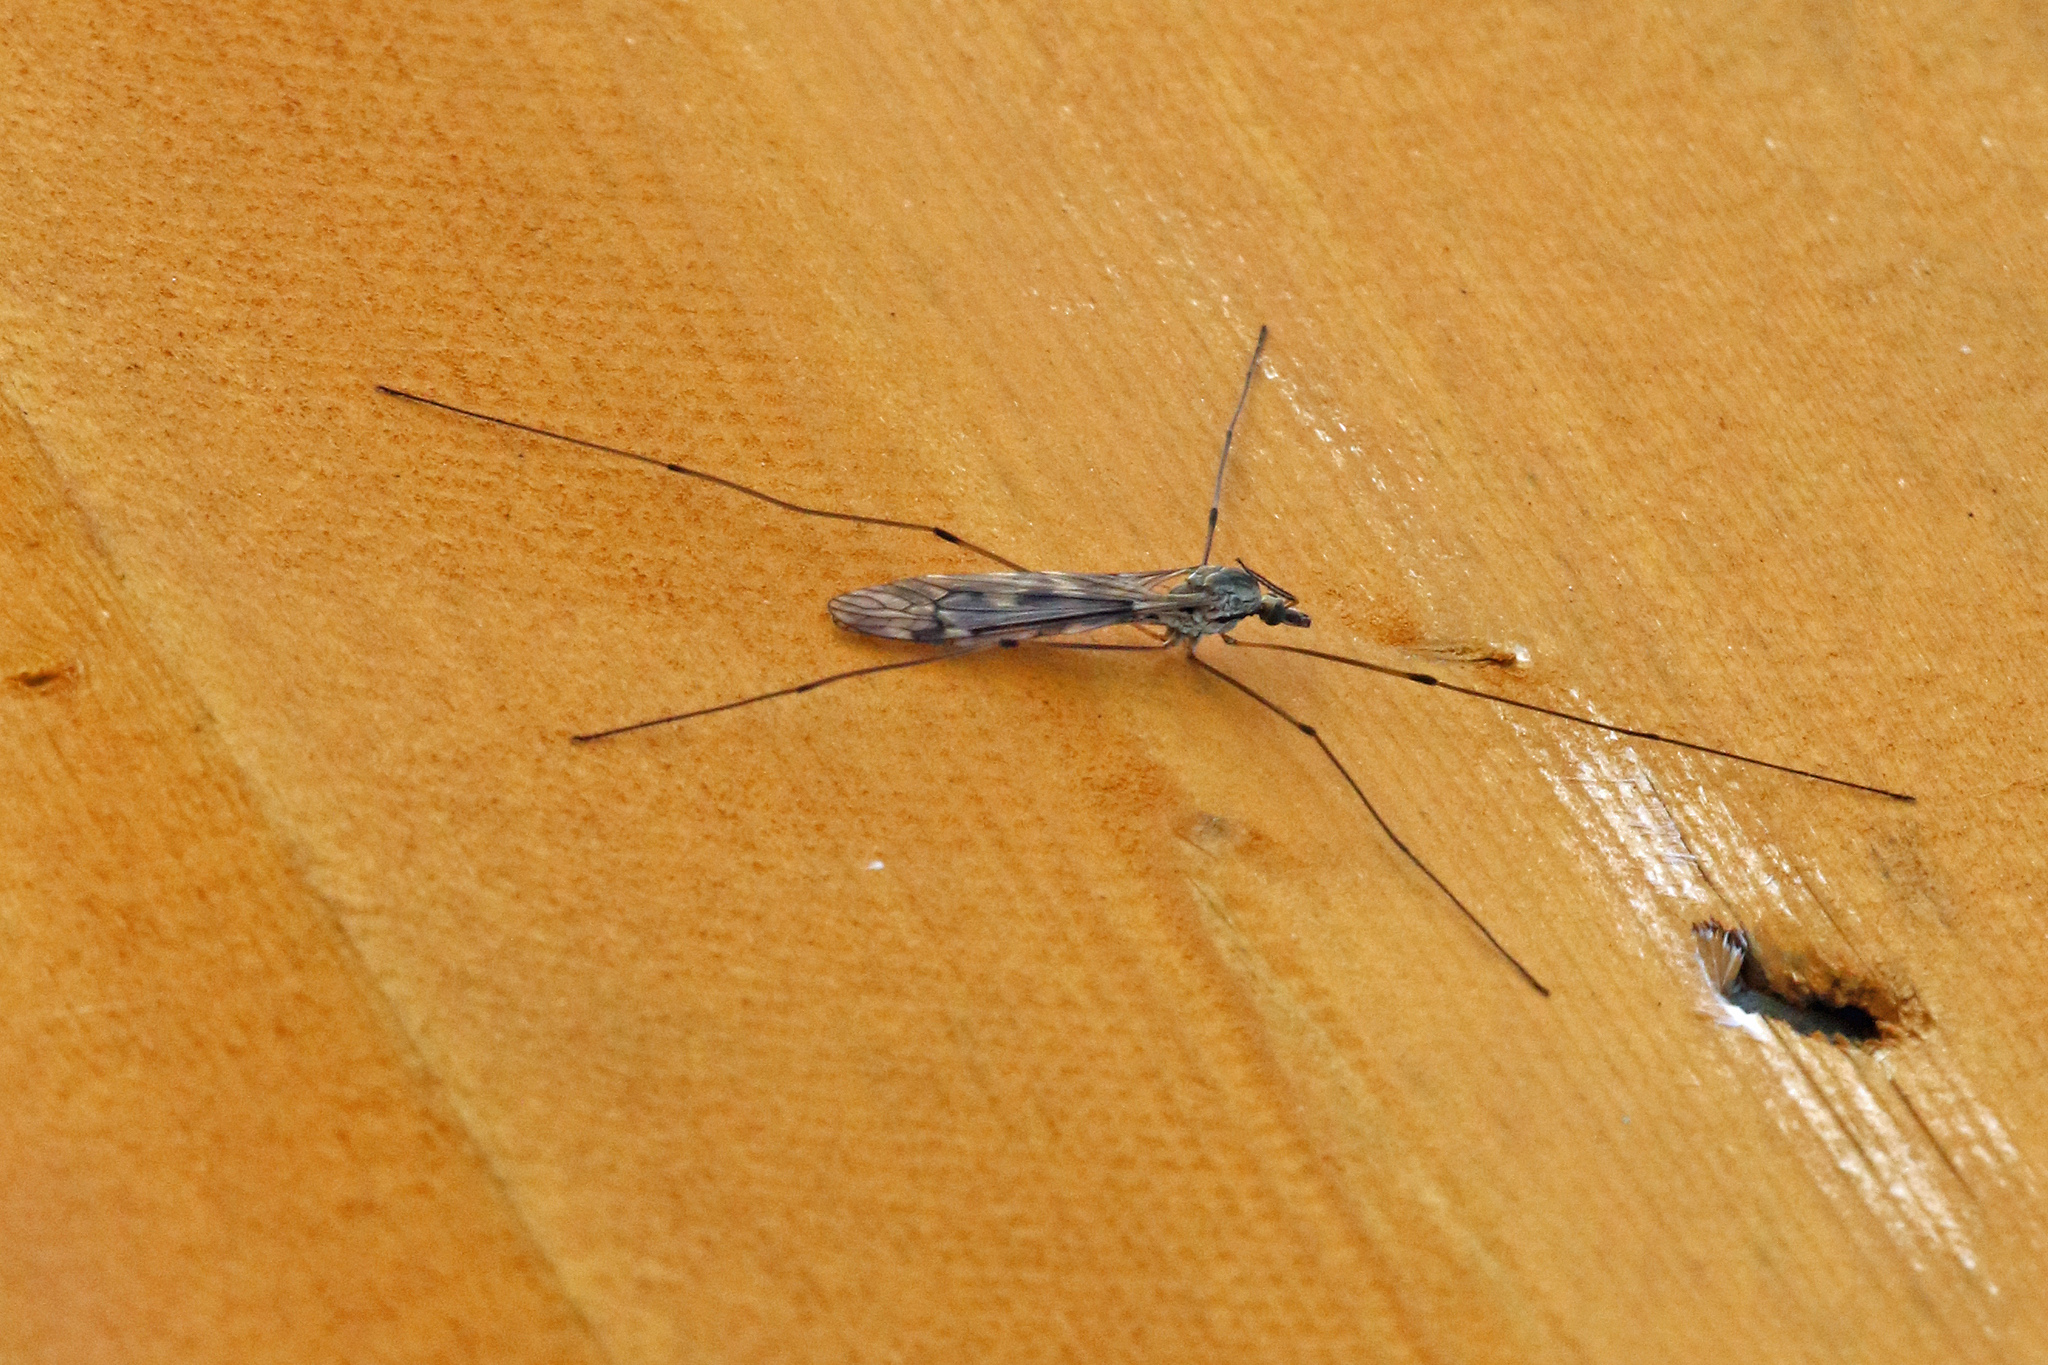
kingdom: Animalia
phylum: Arthropoda
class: Insecta
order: Diptera
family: Tipulidae
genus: Tipula
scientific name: Tipula rufina
